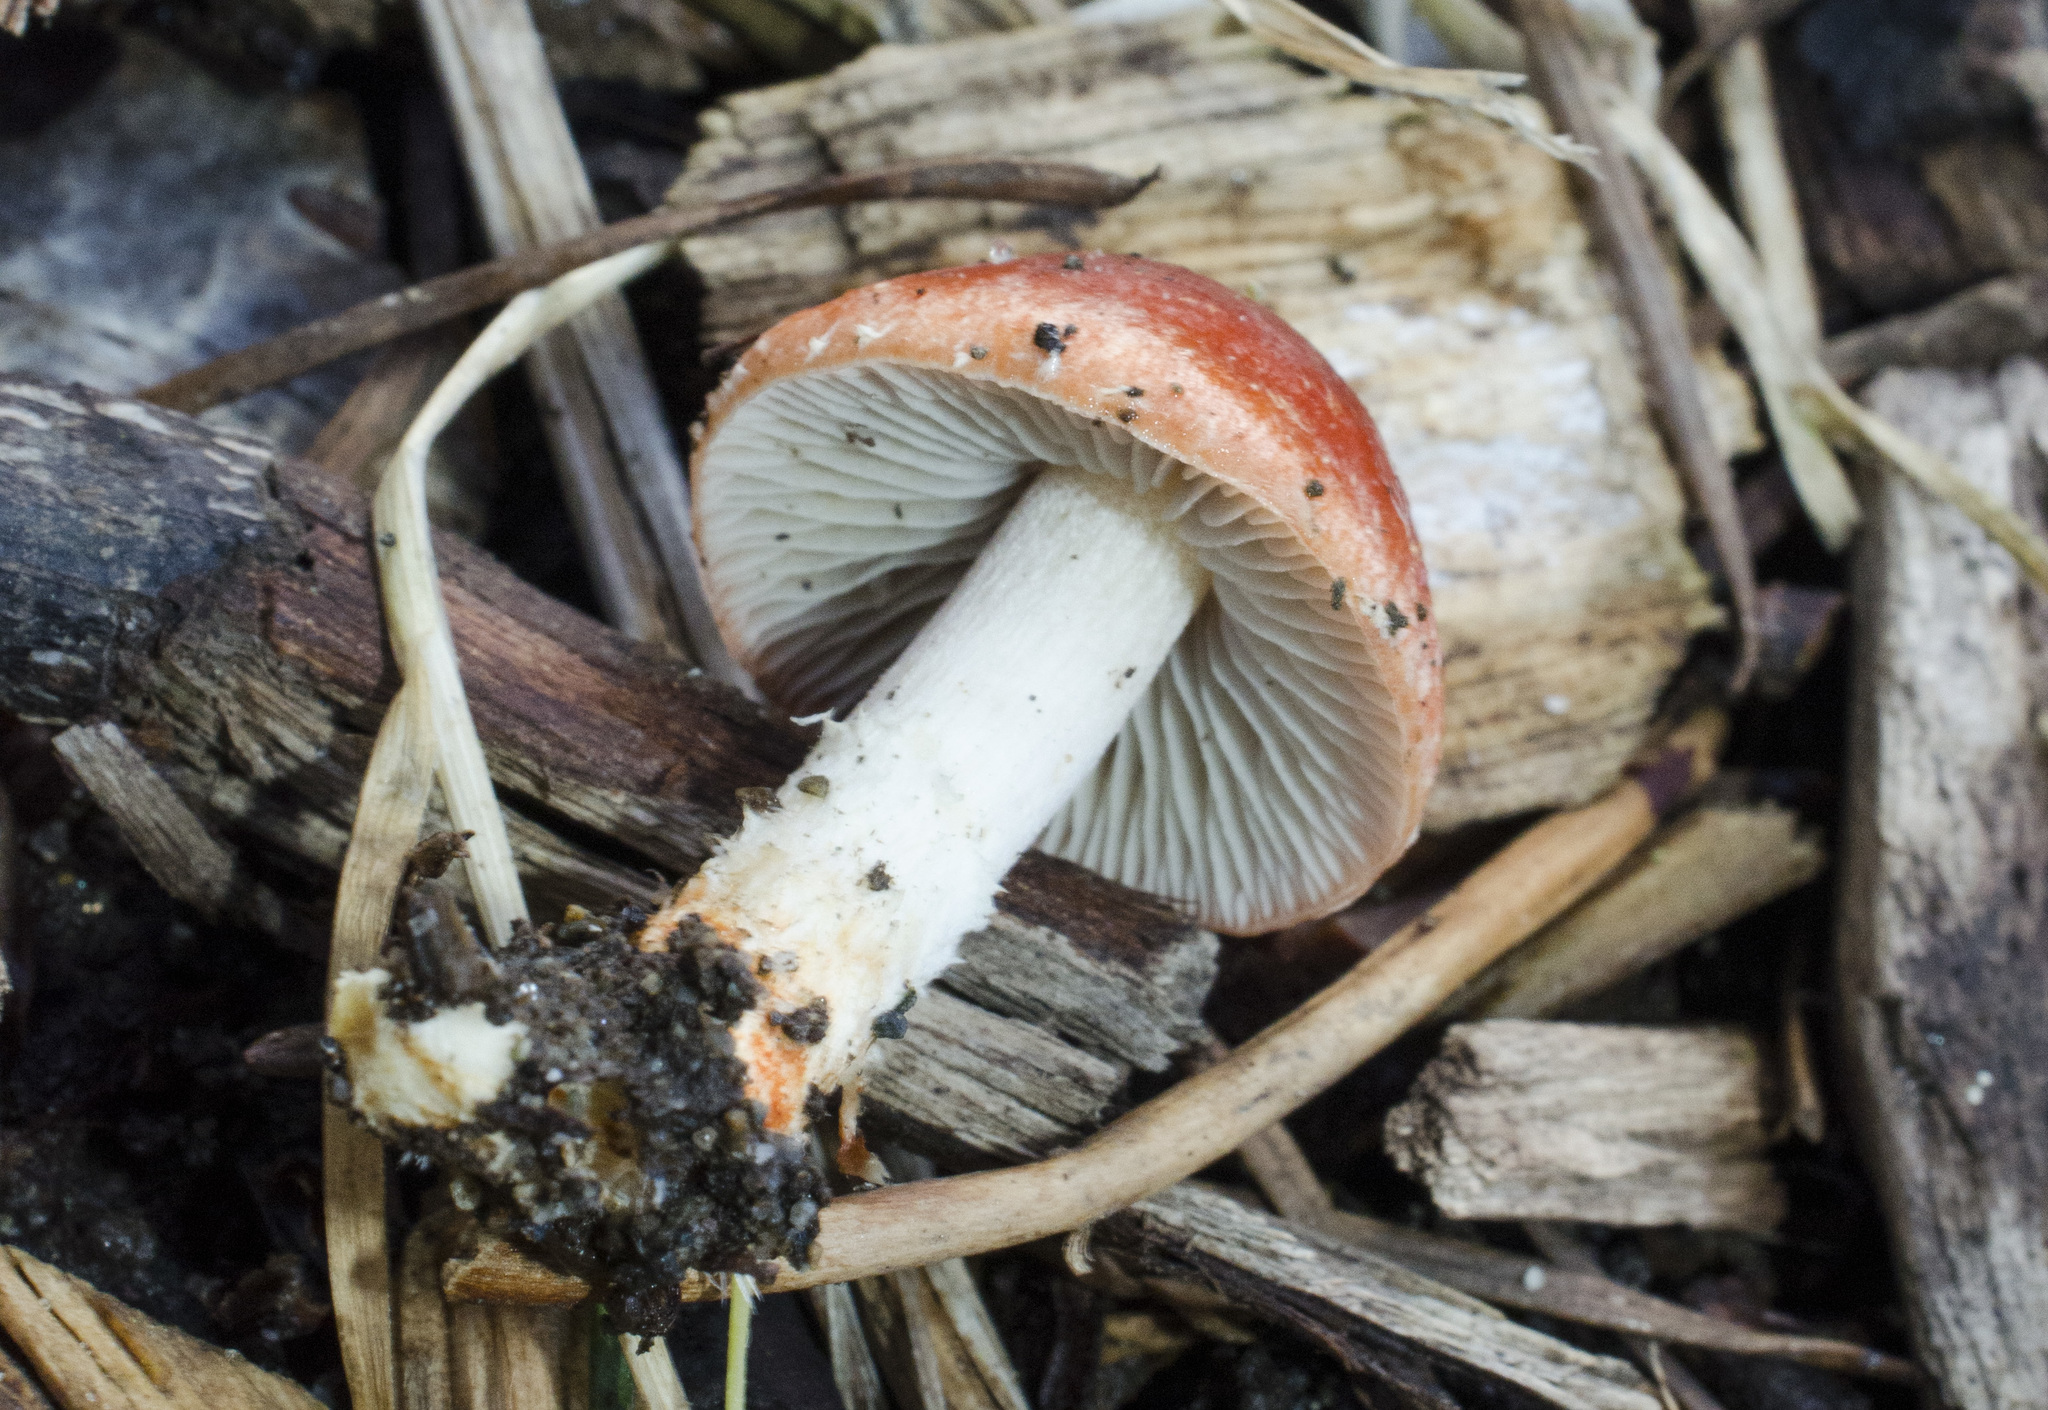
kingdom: Fungi
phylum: Basidiomycota
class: Agaricomycetes
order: Agaricales
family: Strophariaceae
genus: Leratiomyces
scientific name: Leratiomyces ceres
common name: Redlead roundhead
